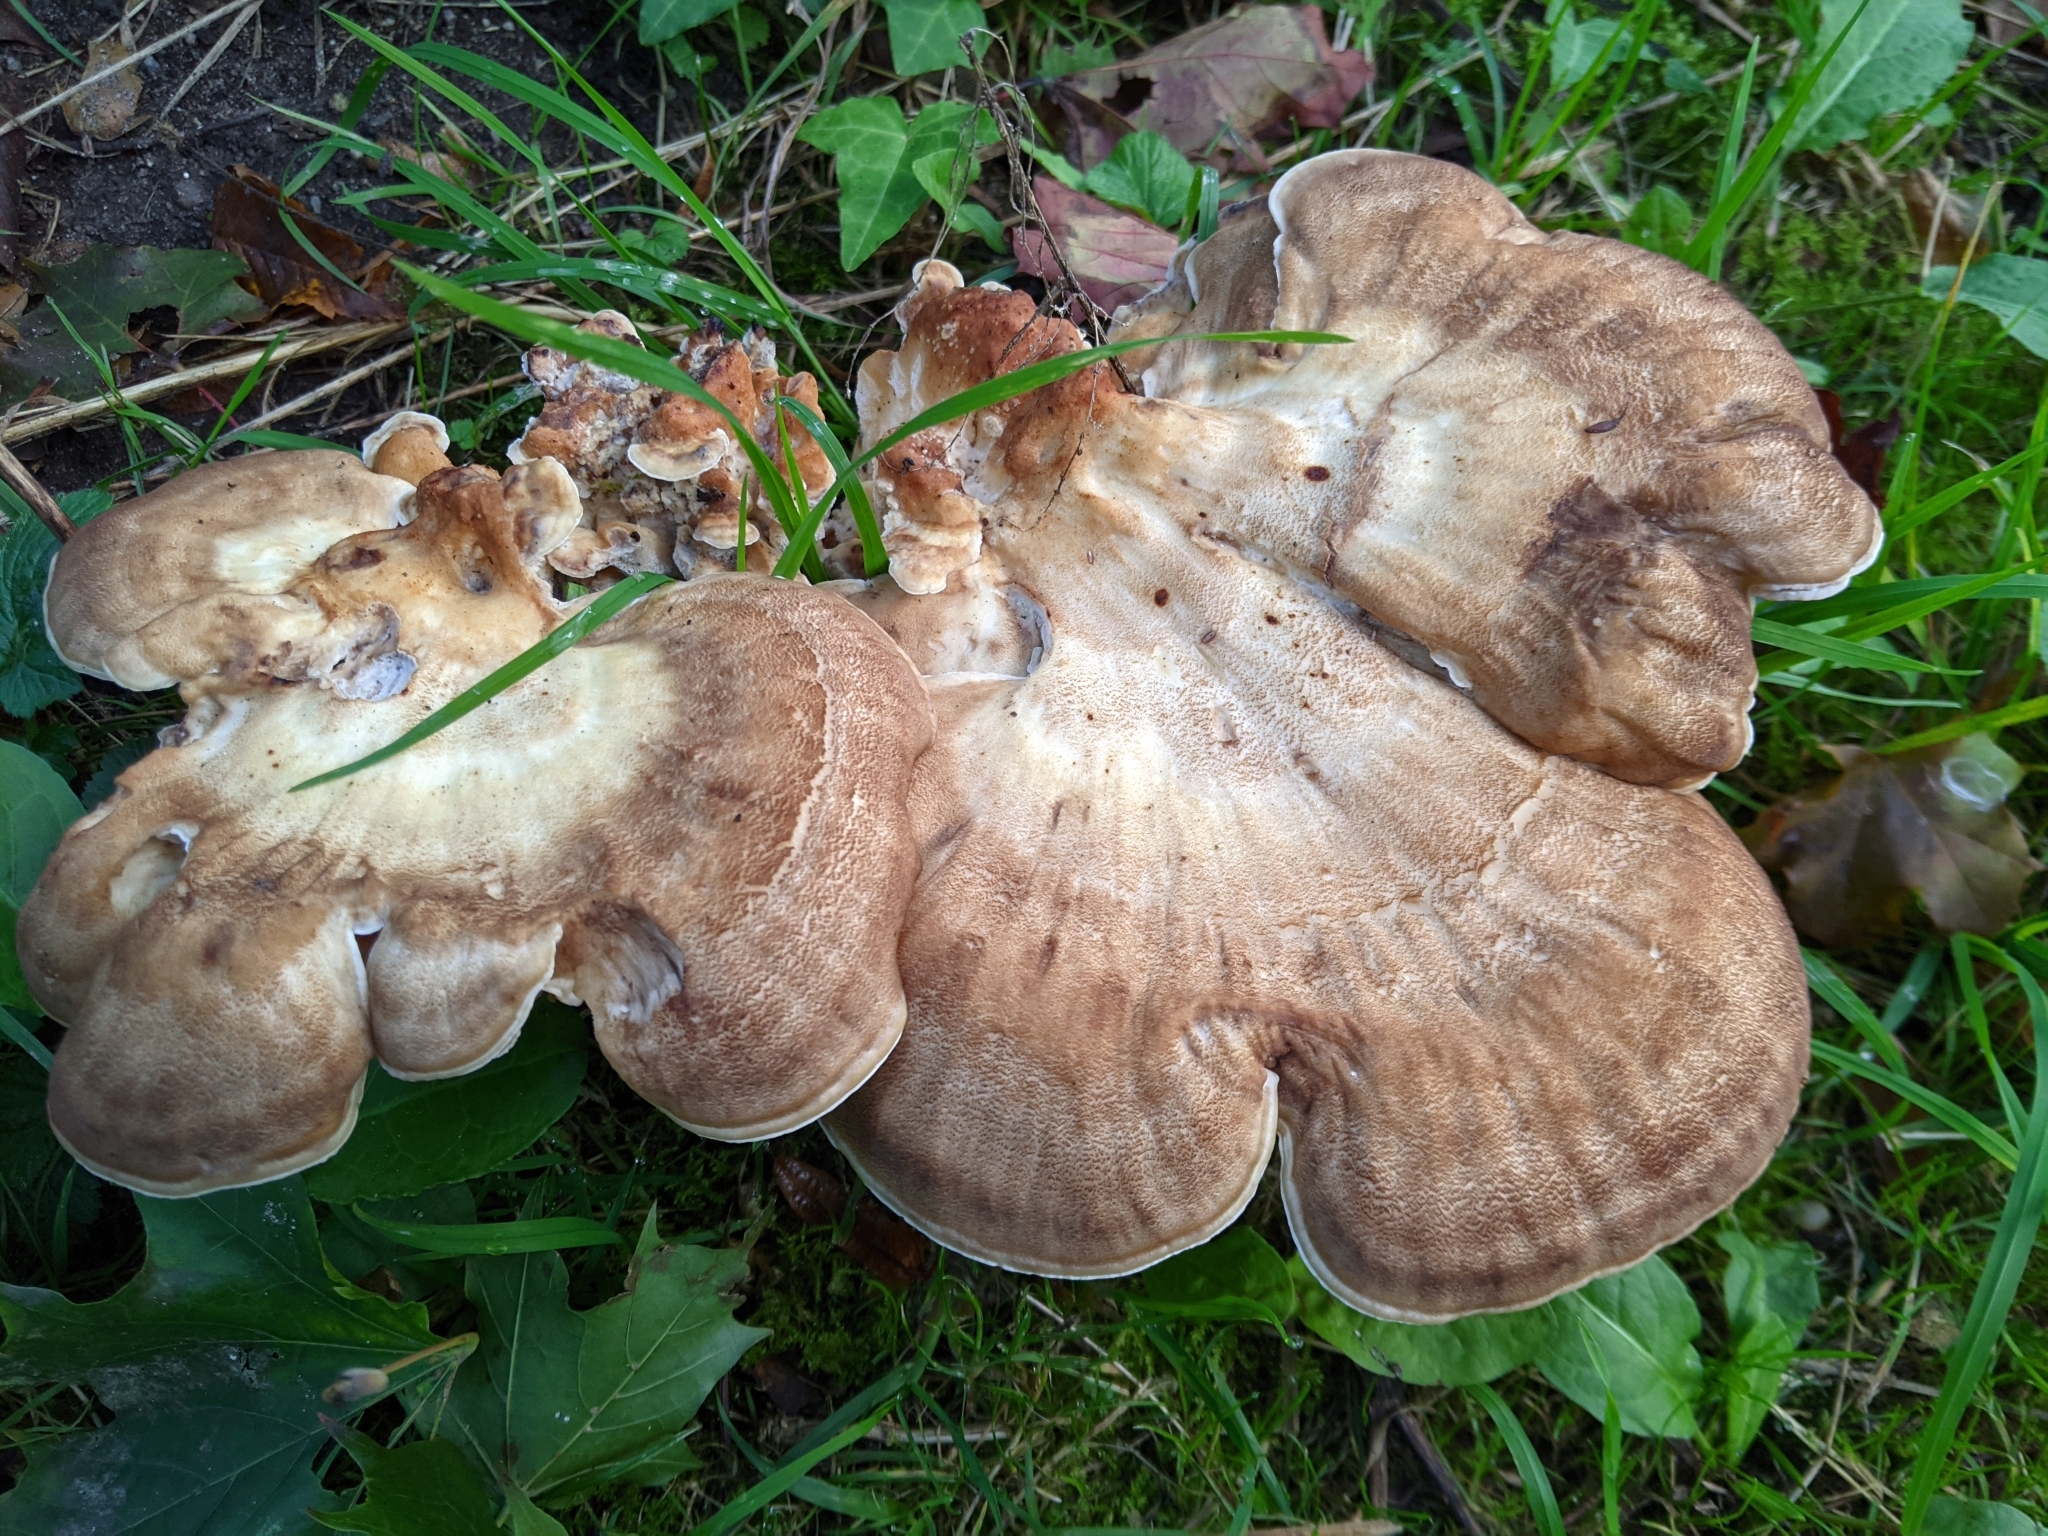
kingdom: Fungi
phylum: Basidiomycota
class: Agaricomycetes
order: Polyporales
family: Meripilaceae
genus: Meripilus
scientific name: Meripilus giganteus
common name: Giant polypore
